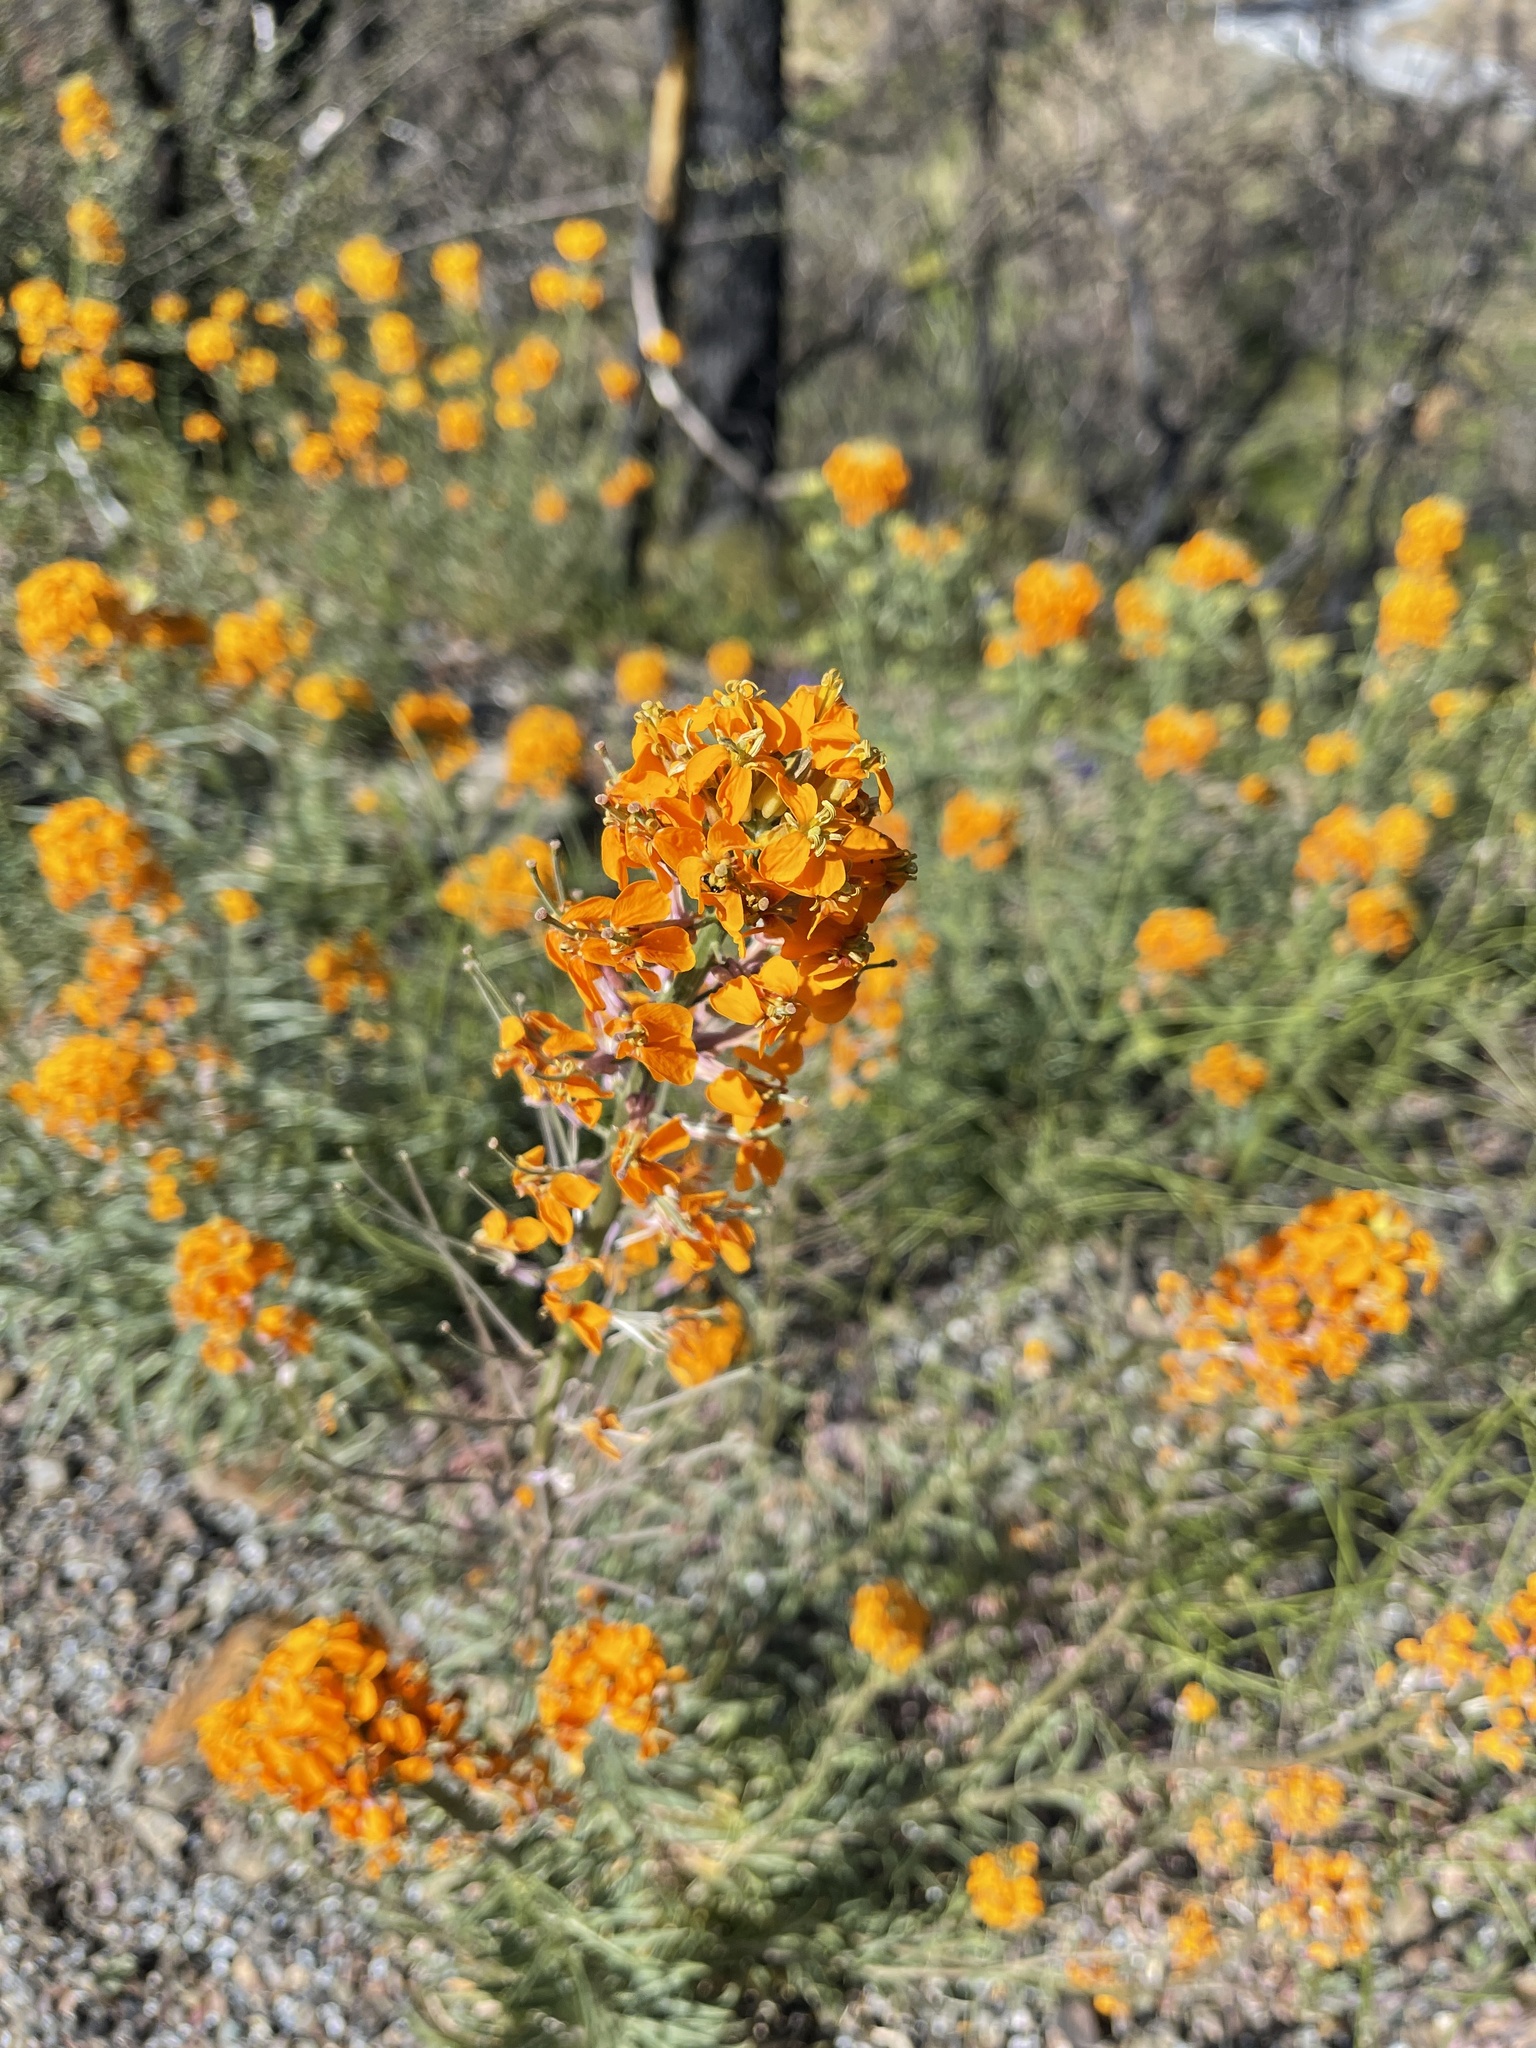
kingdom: Plantae
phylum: Tracheophyta
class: Magnoliopsida
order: Brassicales
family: Brassicaceae
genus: Erysimum
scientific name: Erysimum capitatum
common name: Western wallflower
